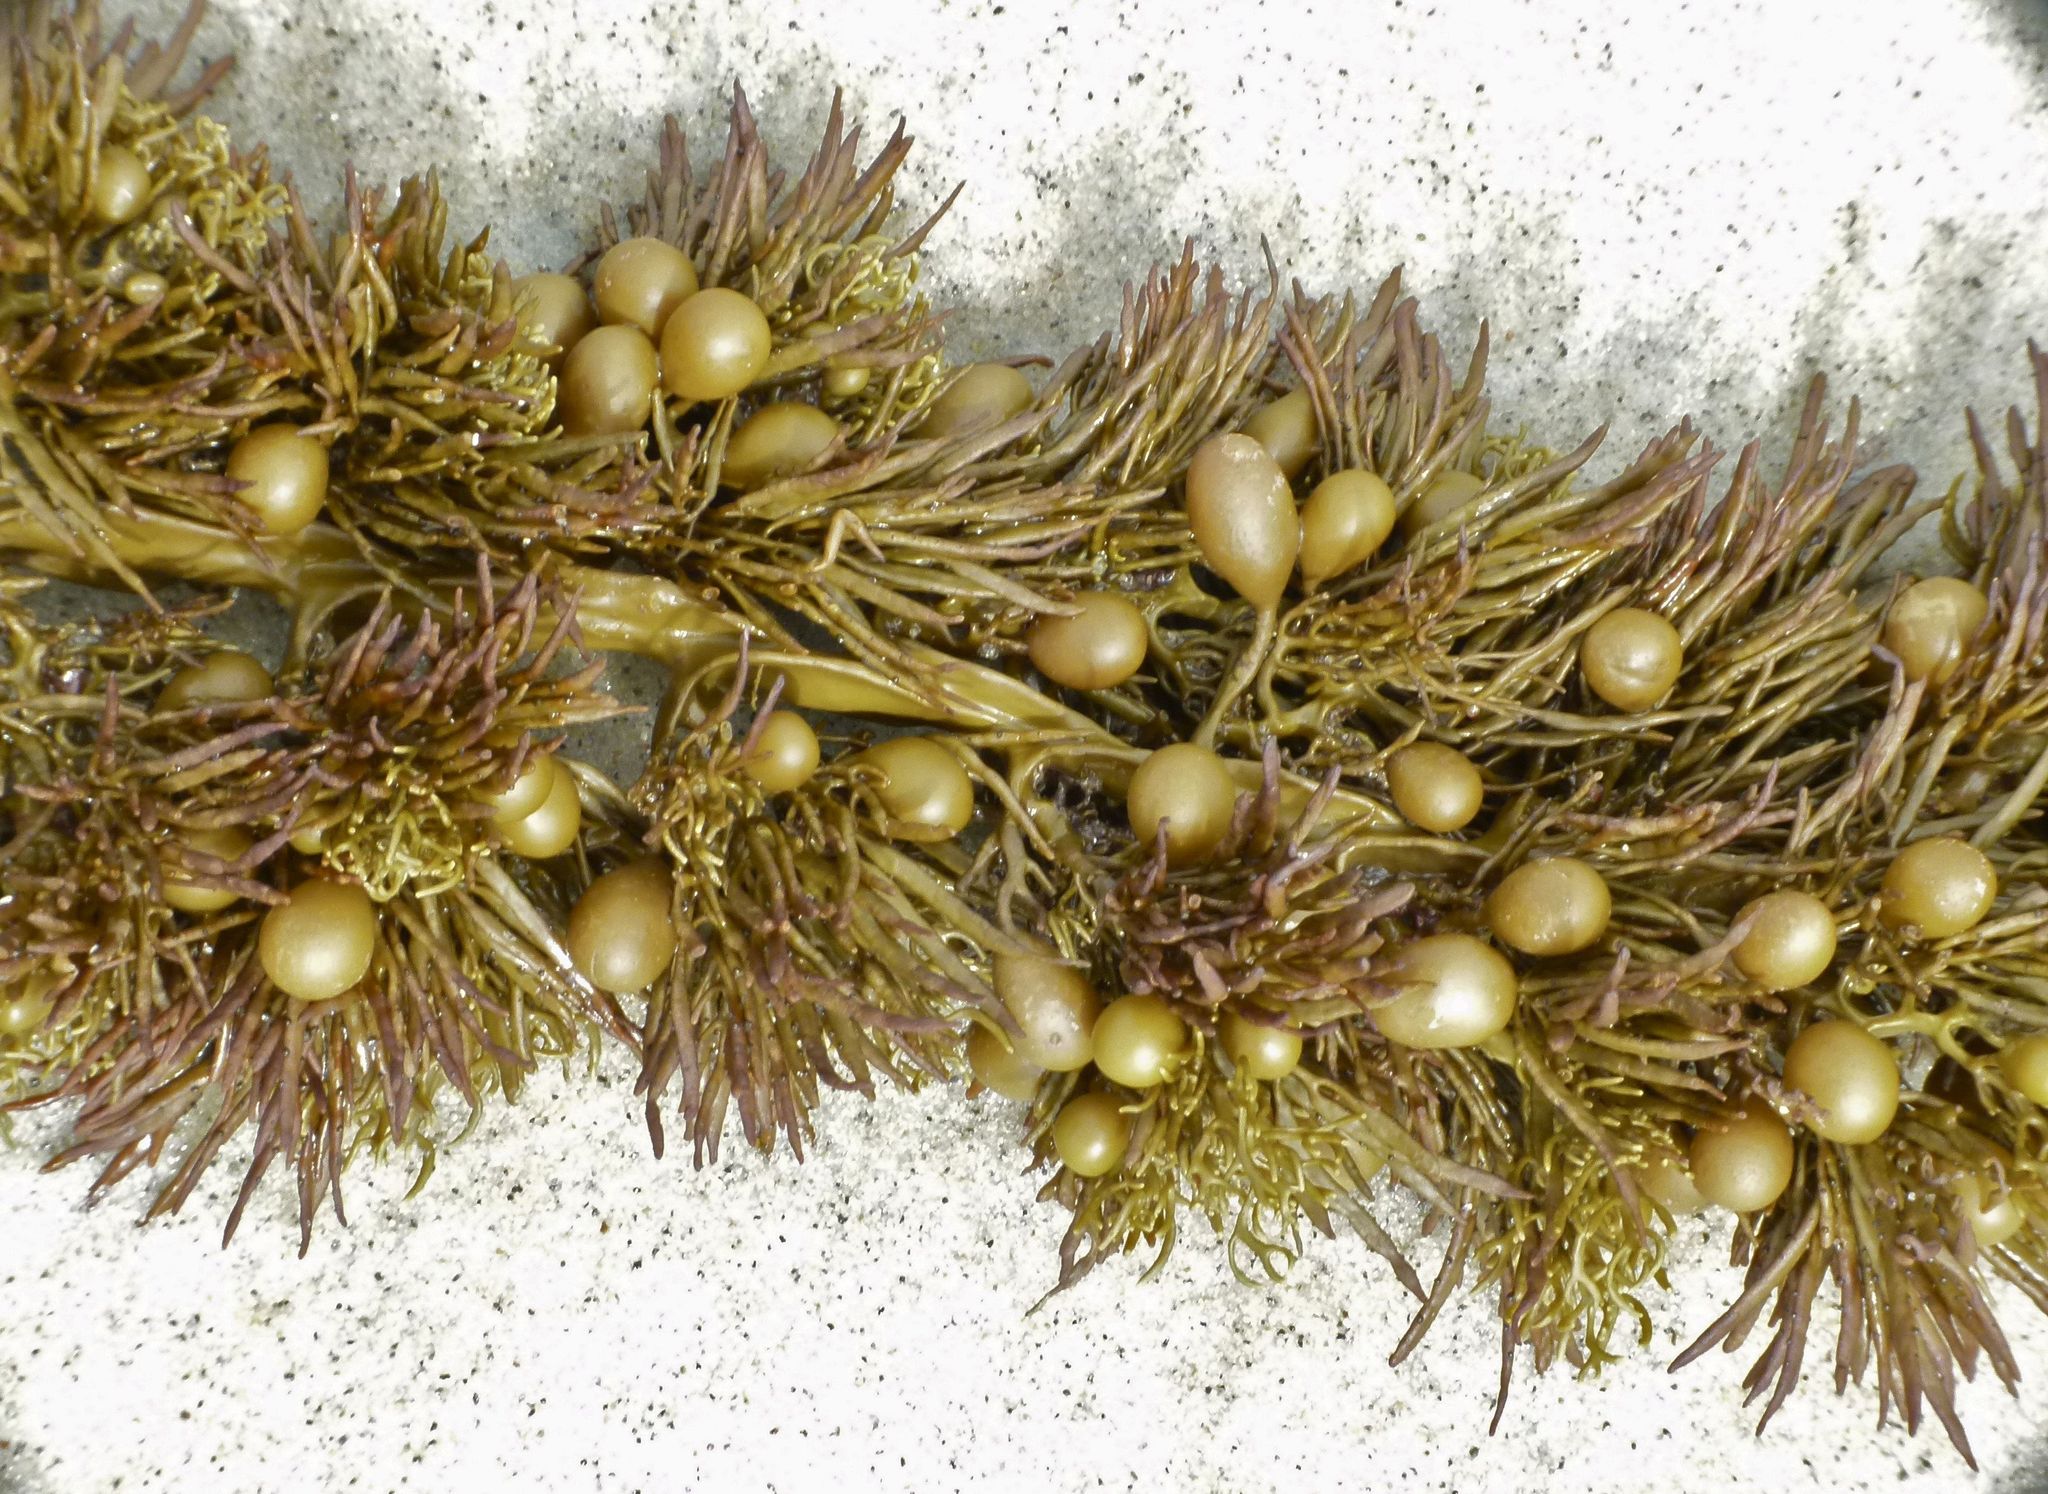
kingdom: Chromista
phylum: Ochrophyta
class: Phaeophyceae
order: Fucales
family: Sargassaceae
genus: Cystophora
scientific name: Cystophora retroflexa
